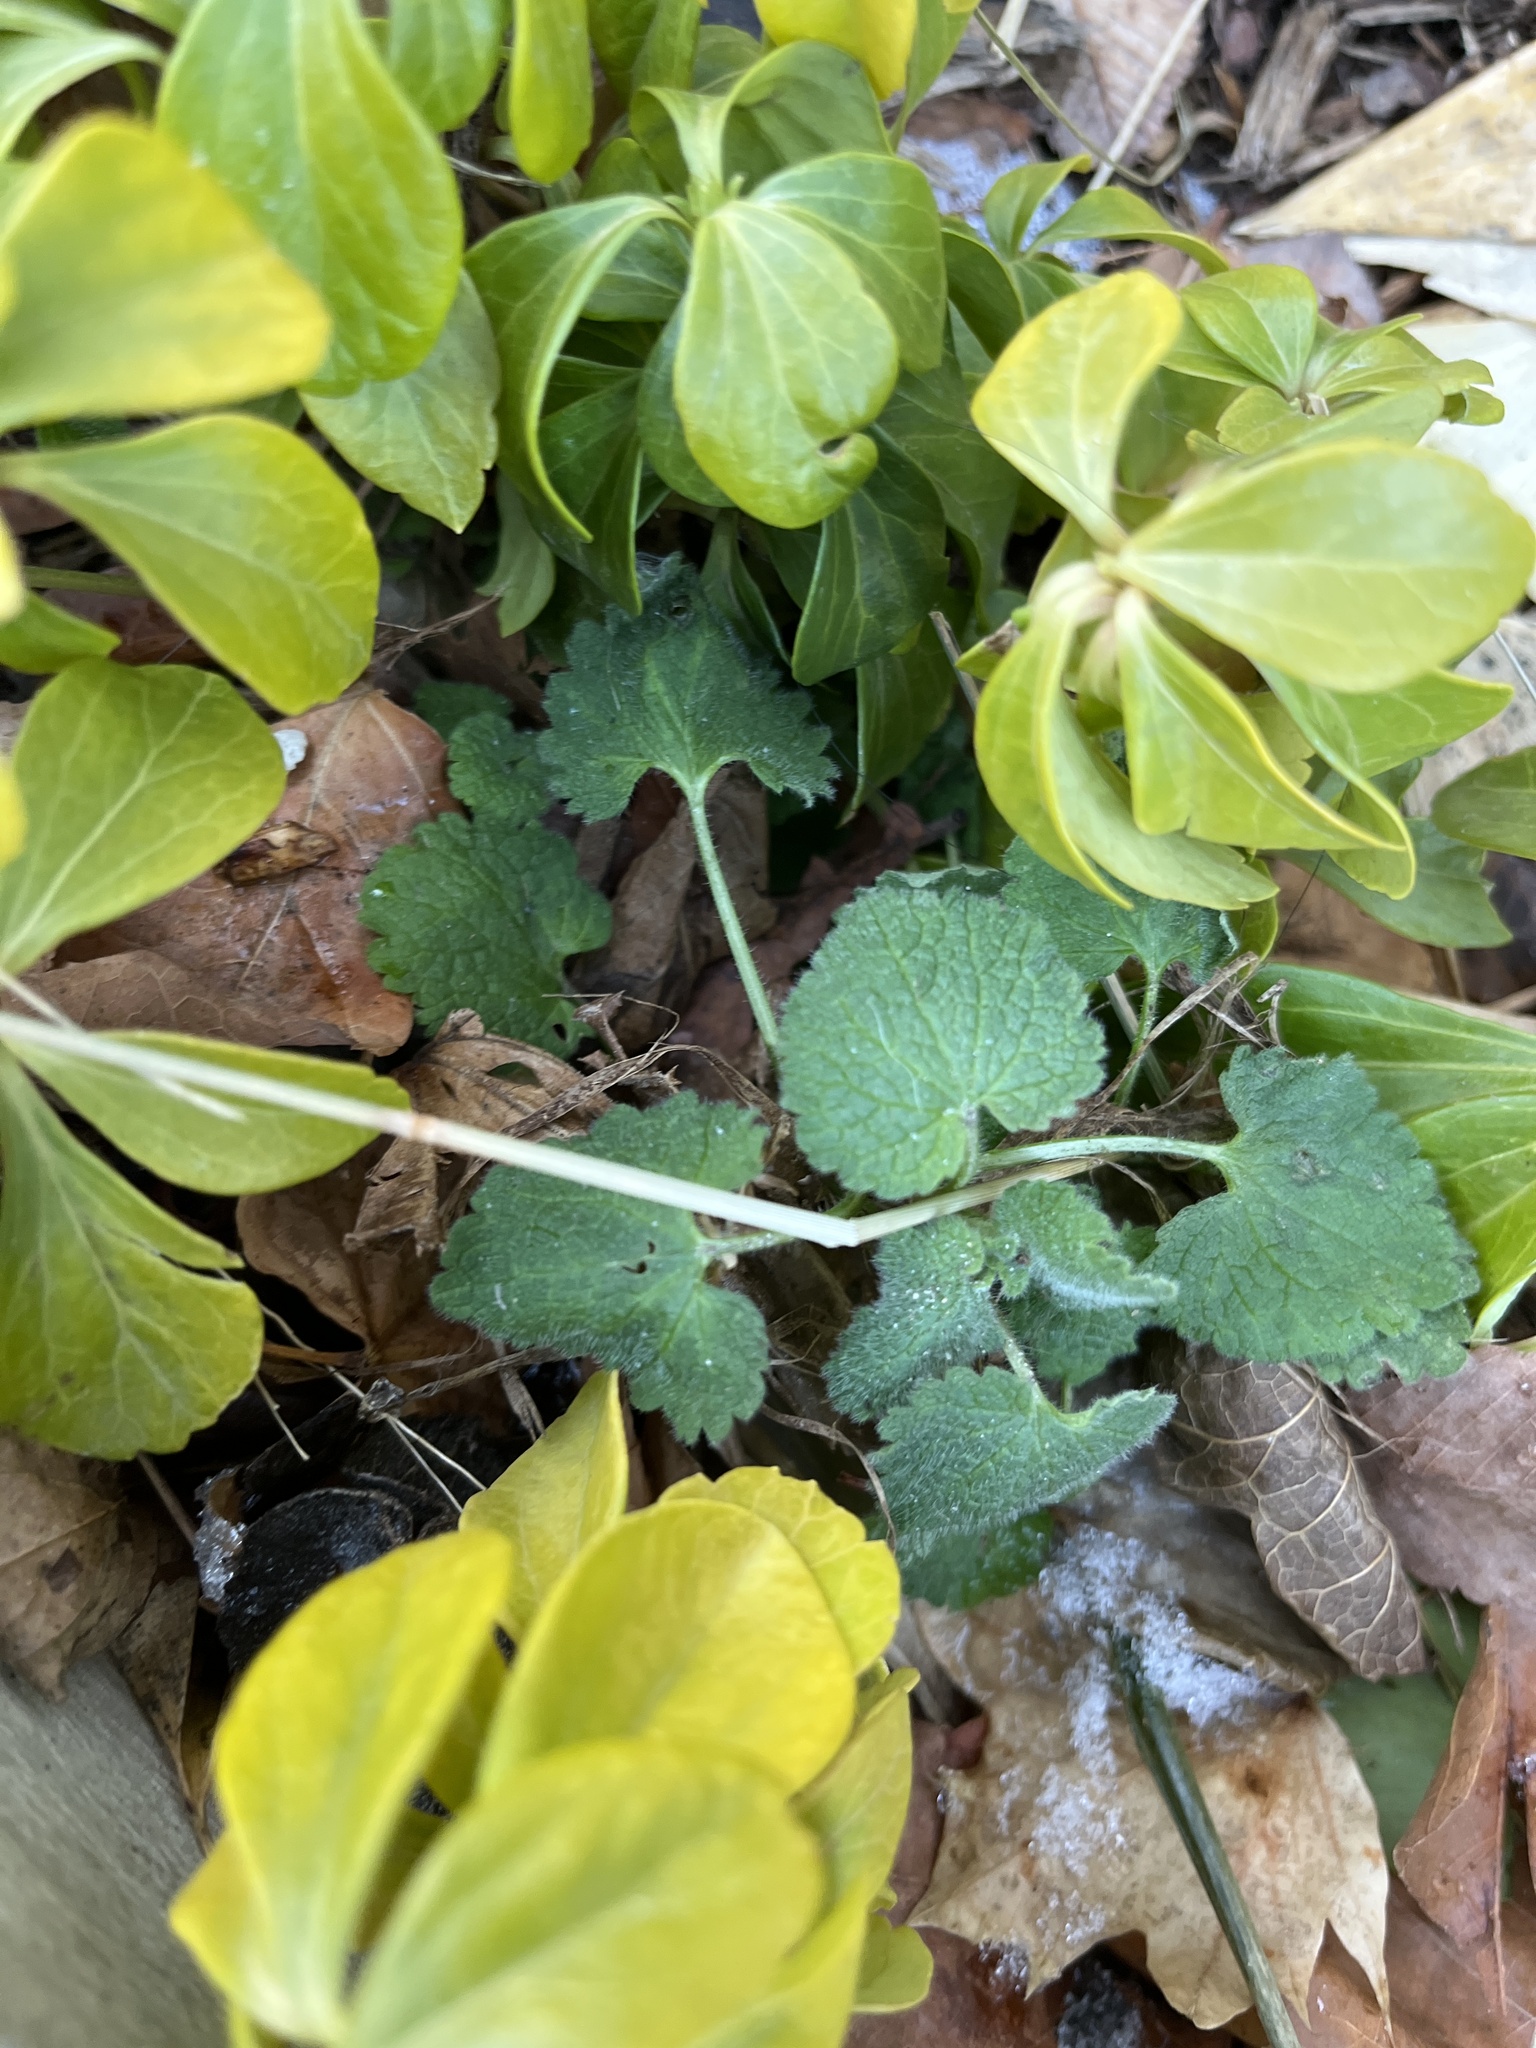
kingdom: Plantae
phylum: Tracheophyta
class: Magnoliopsida
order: Lamiales
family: Lamiaceae
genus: Lamium
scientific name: Lamium purpureum
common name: Red dead-nettle
